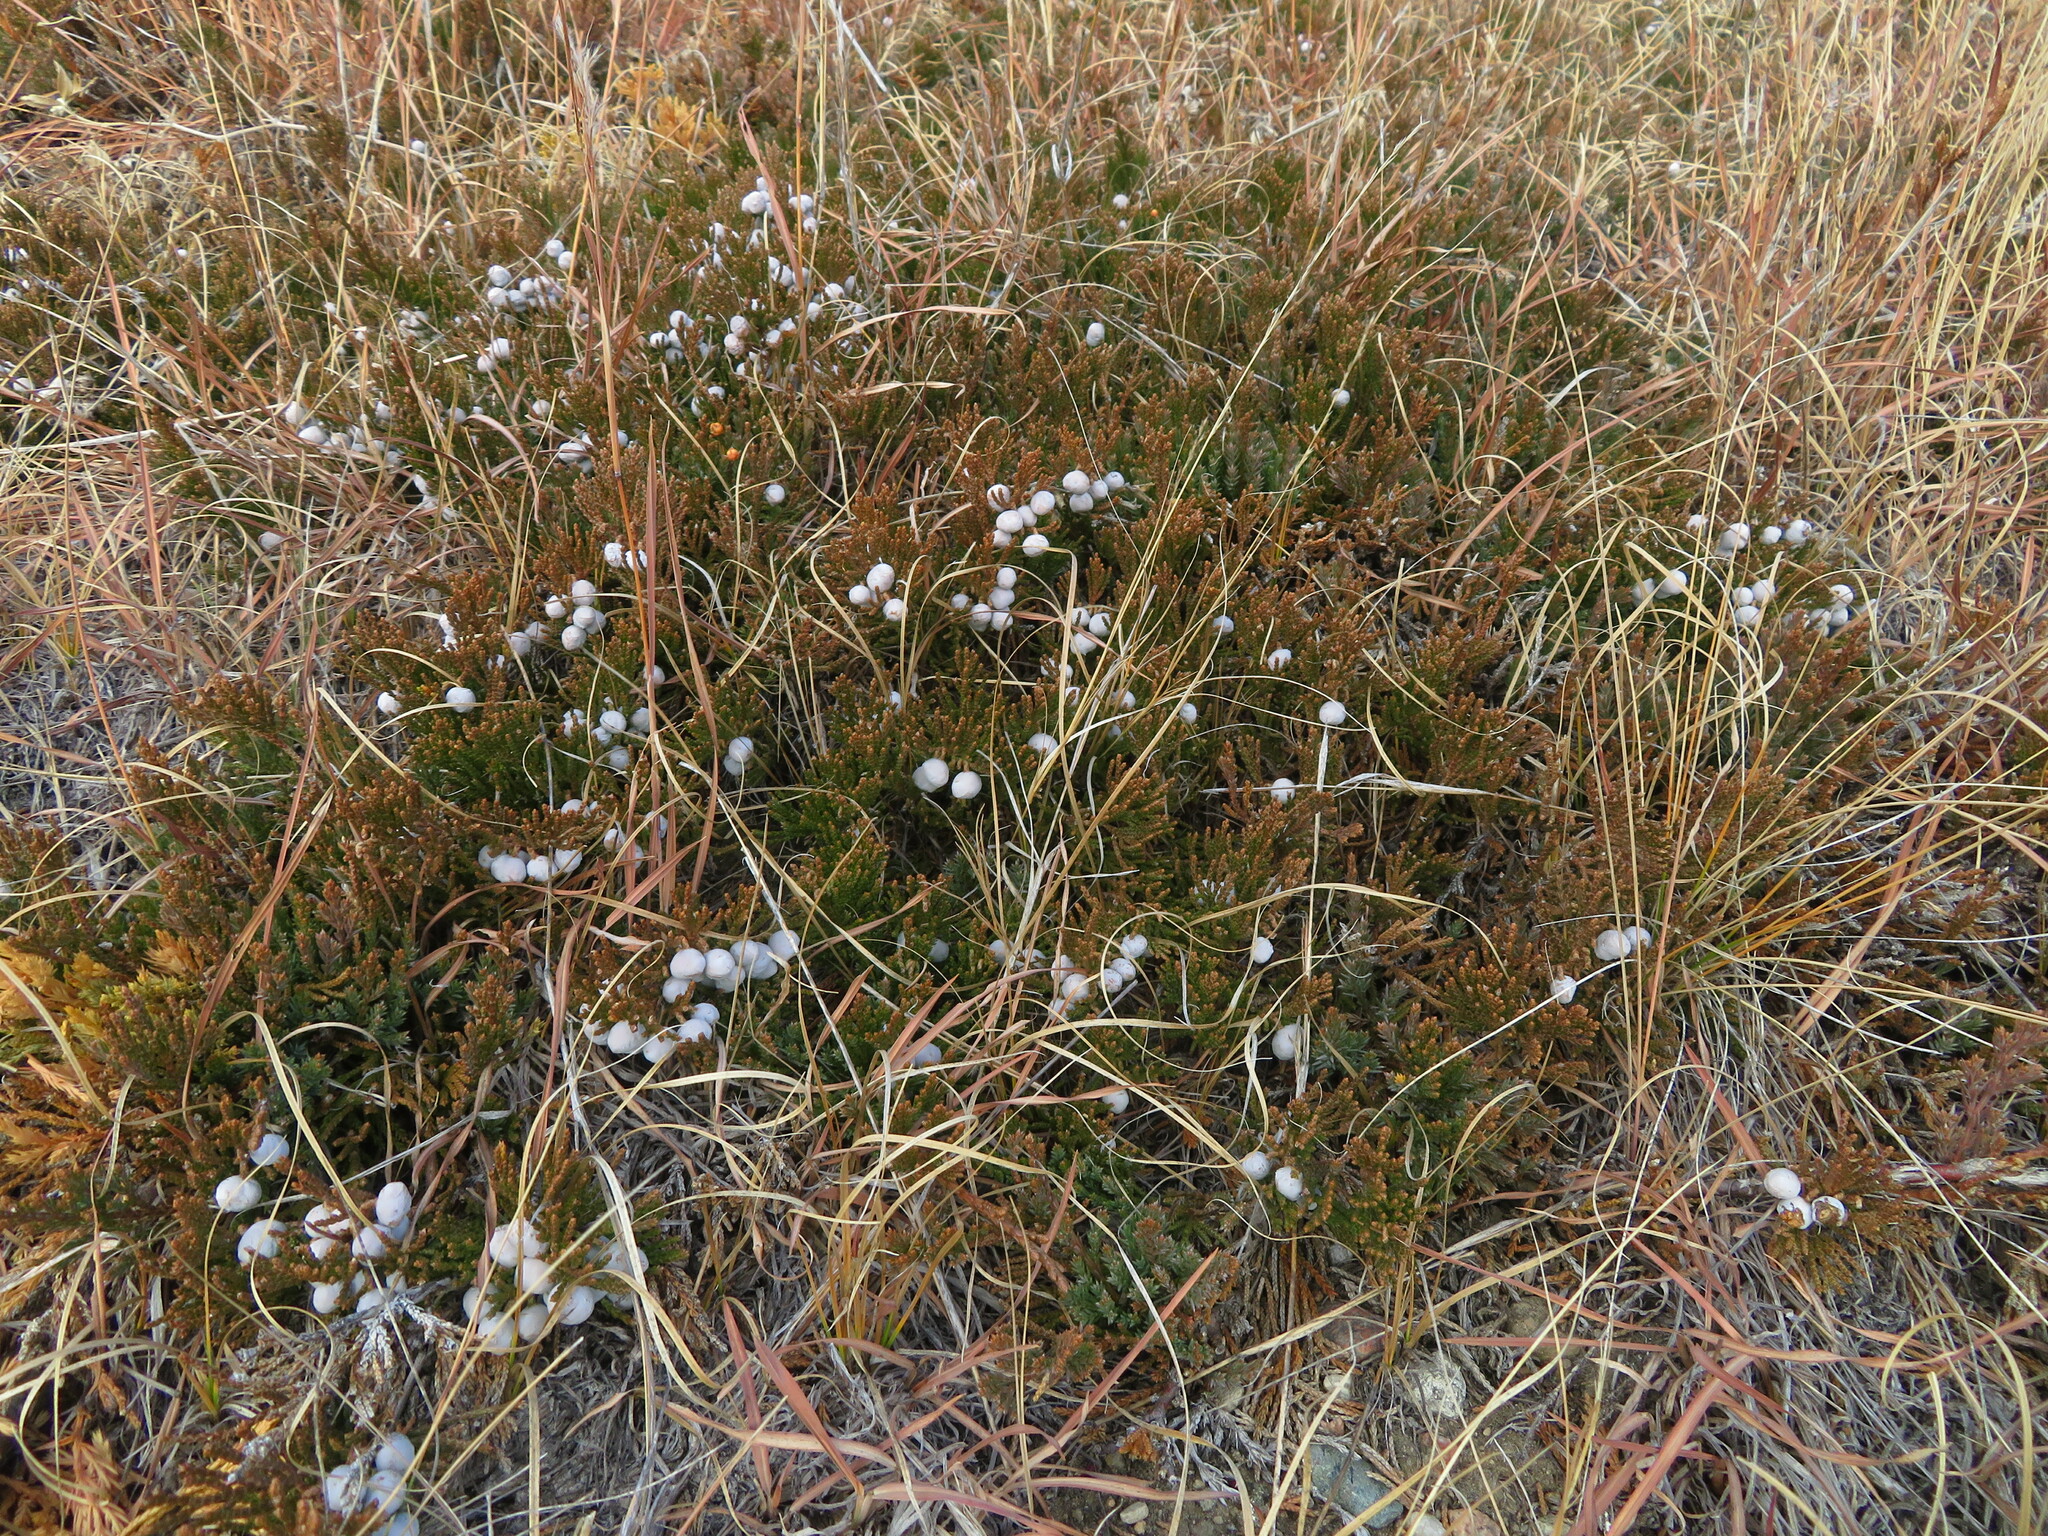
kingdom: Plantae
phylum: Tracheophyta
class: Pinopsida
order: Pinales
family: Cupressaceae
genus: Juniperus
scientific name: Juniperus horizontalis
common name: Creeping juniper
